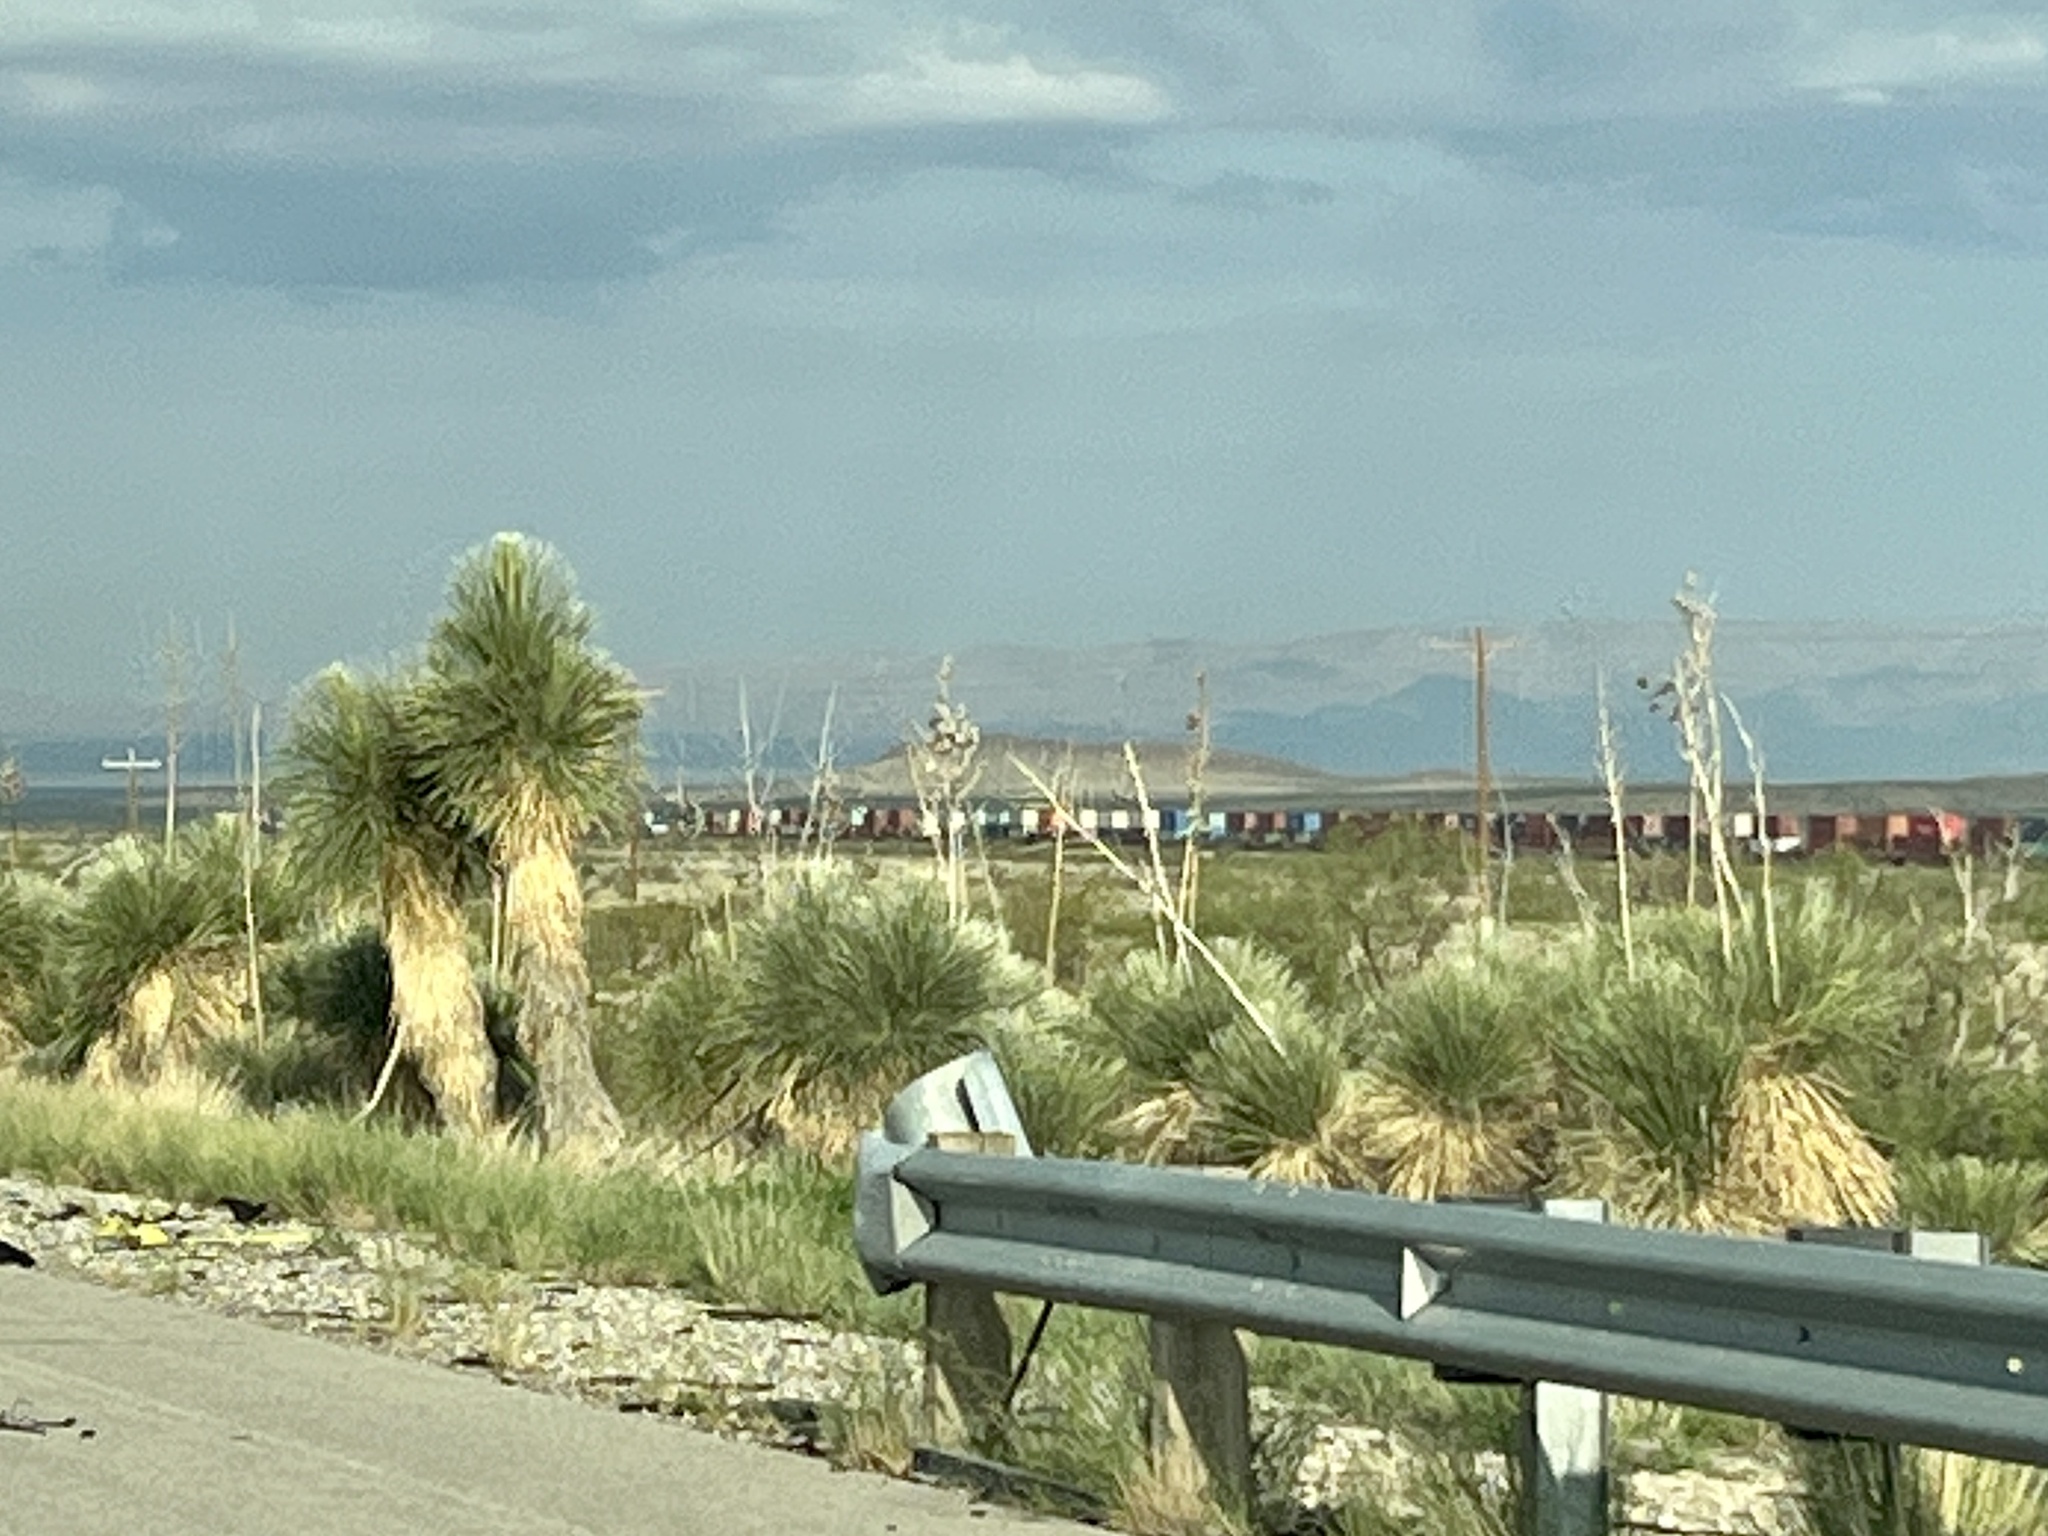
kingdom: Plantae
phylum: Tracheophyta
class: Liliopsida
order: Asparagales
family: Asparagaceae
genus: Yucca
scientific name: Yucca elata
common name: Palmella
